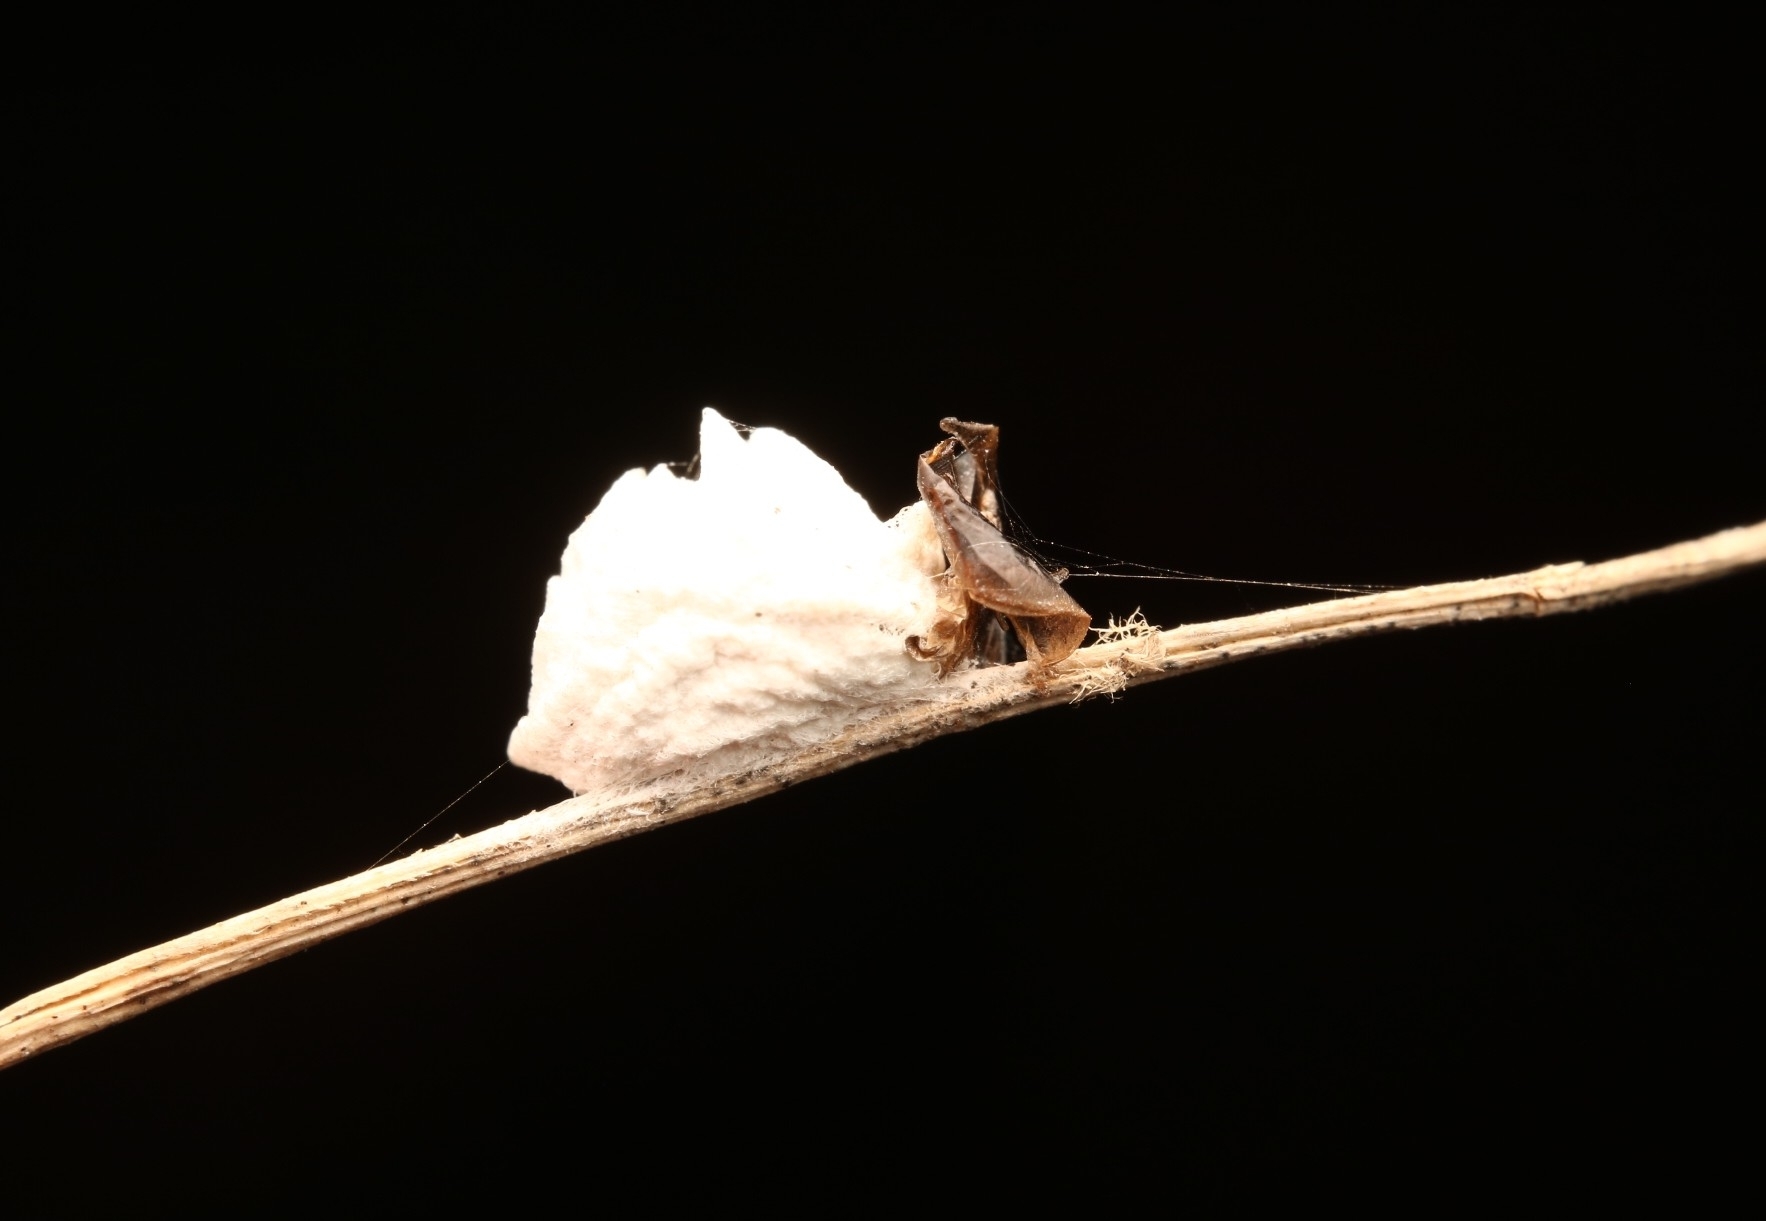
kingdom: Animalia
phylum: Arthropoda
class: Insecta
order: Lepidoptera
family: Epipyropidae
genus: Fulgoraecia
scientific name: Fulgoraecia exigua
